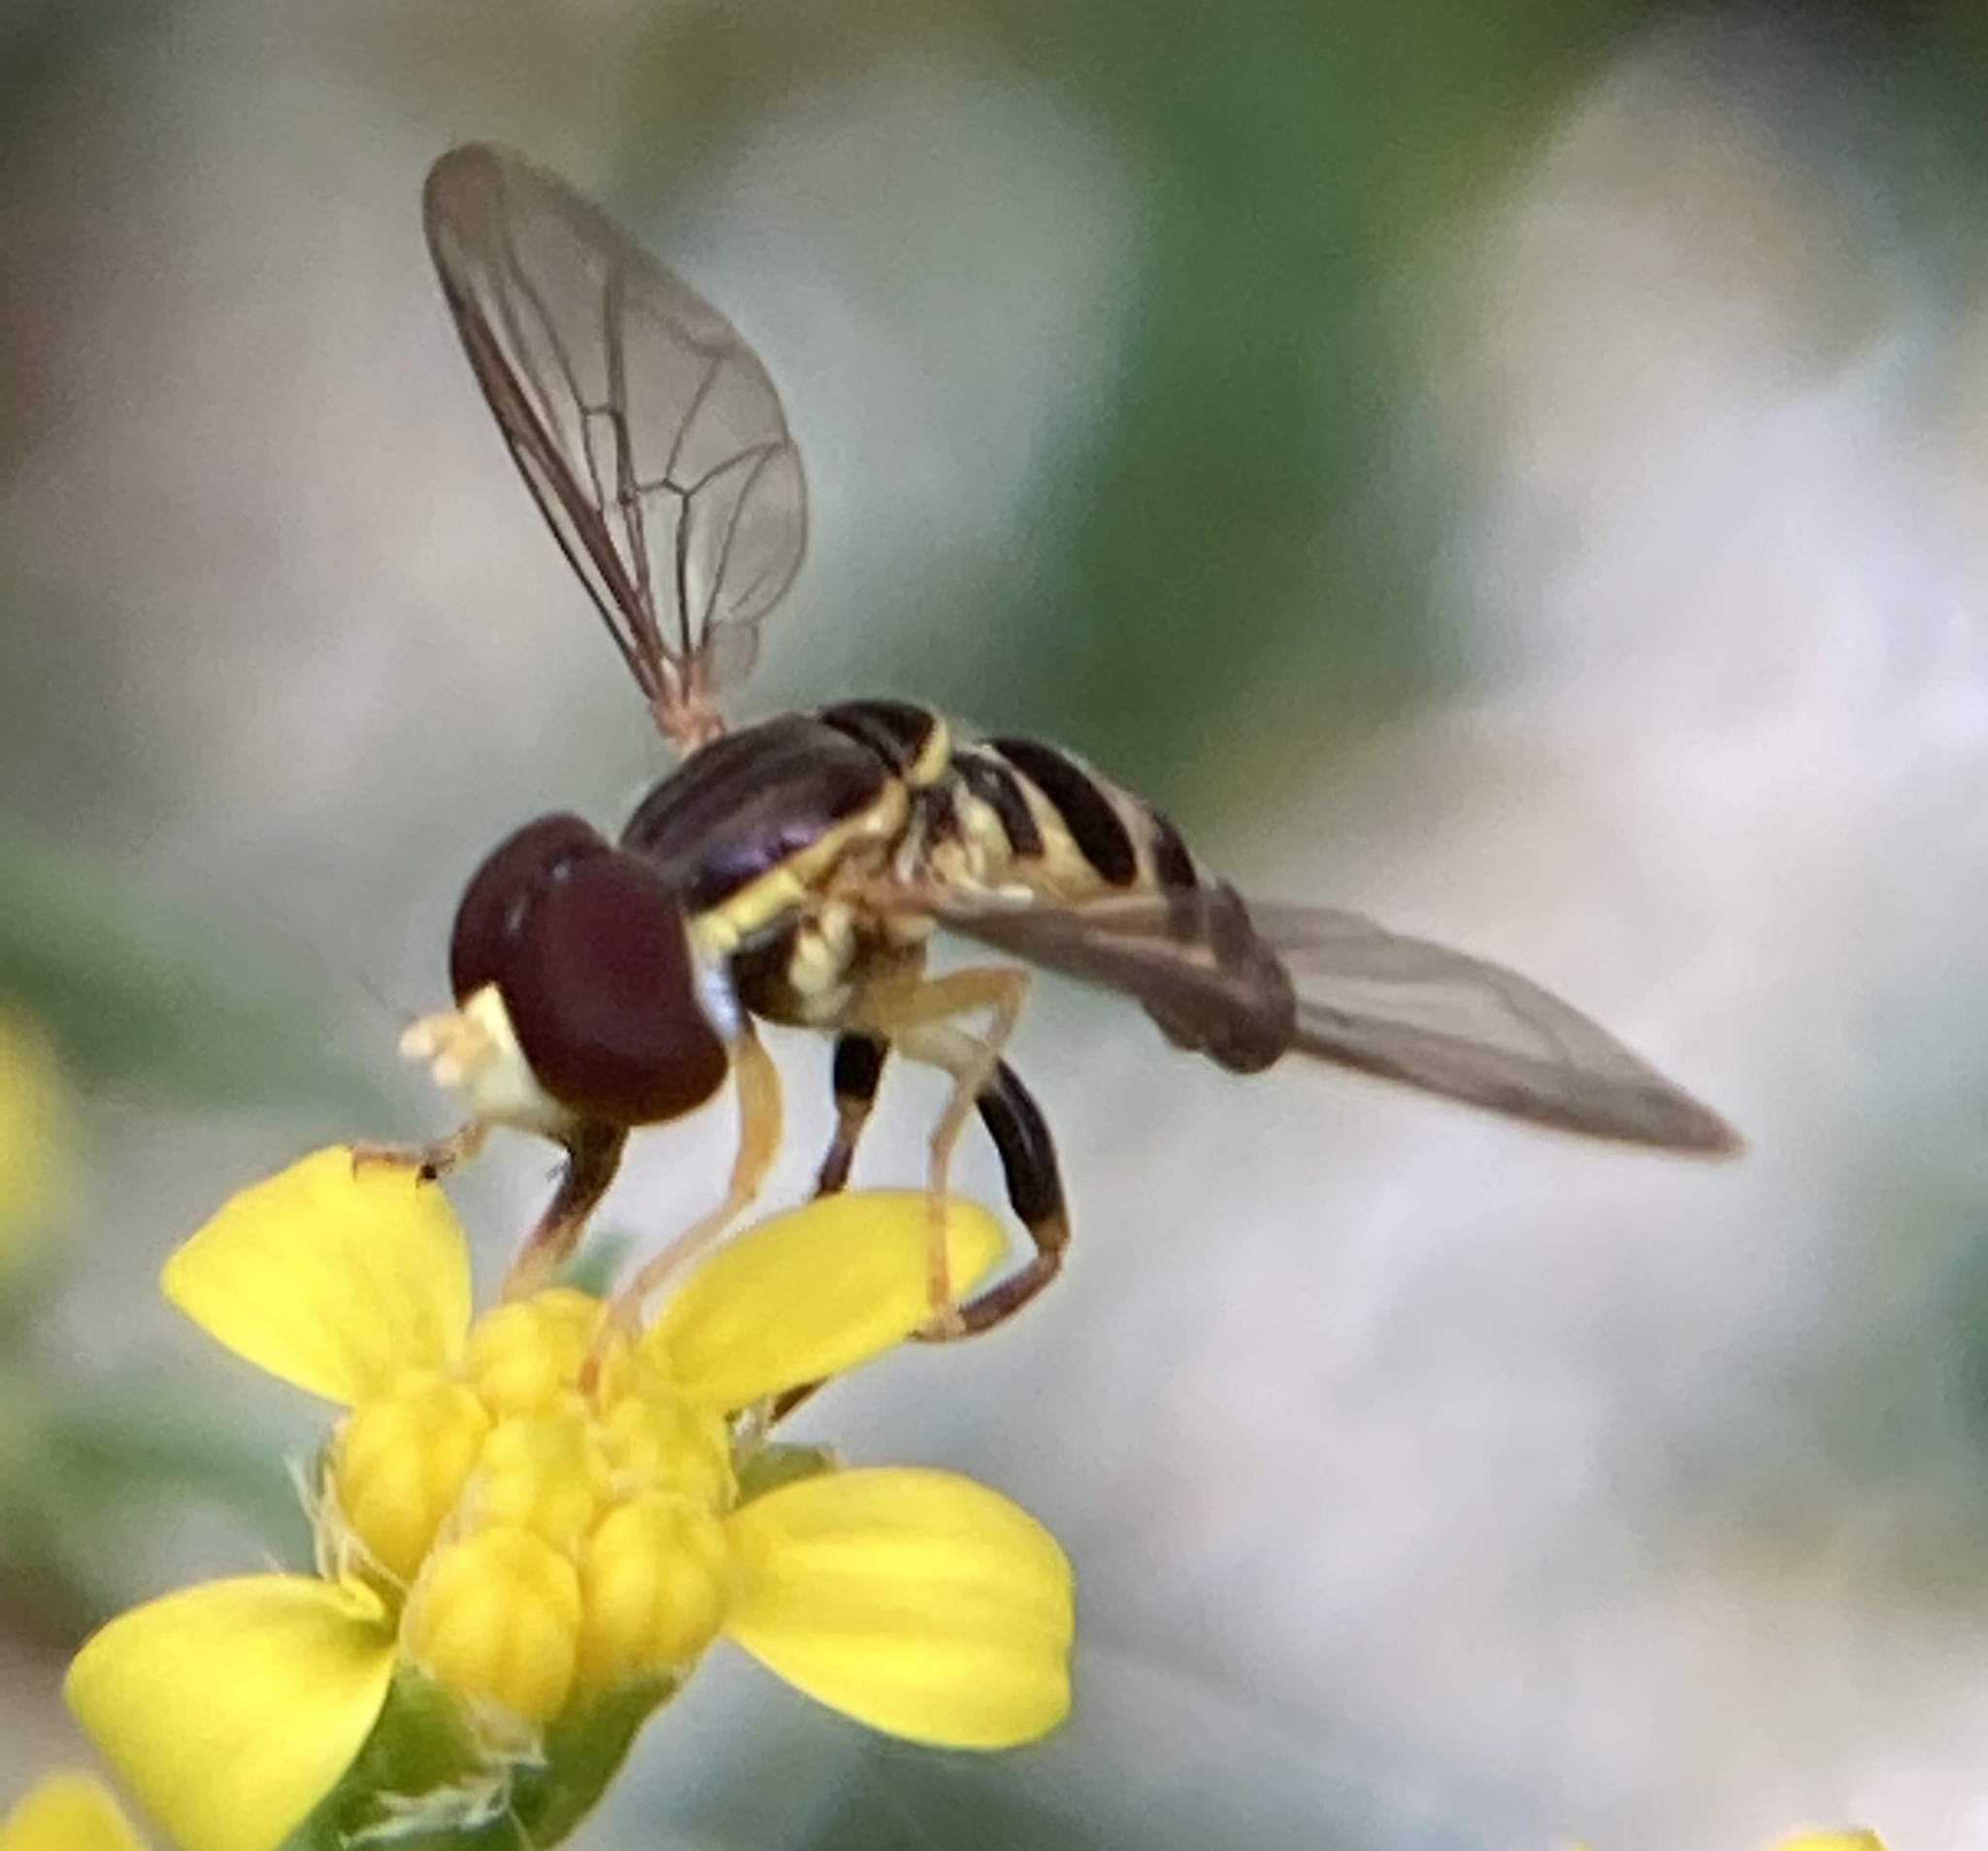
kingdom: Animalia
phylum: Arthropoda
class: Insecta
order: Diptera
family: Syrphidae
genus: Toxomerus
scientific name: Toxomerus geminatus
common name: Eastern calligrapher
